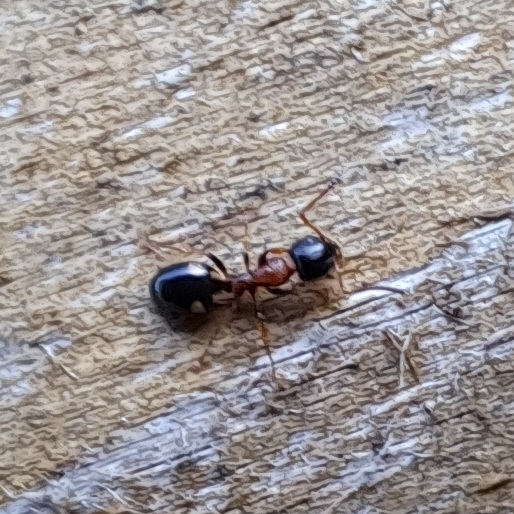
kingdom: Animalia
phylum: Arthropoda
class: Insecta
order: Hymenoptera
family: Formicidae
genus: Dolichoderus
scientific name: Dolichoderus quadripunctatus
